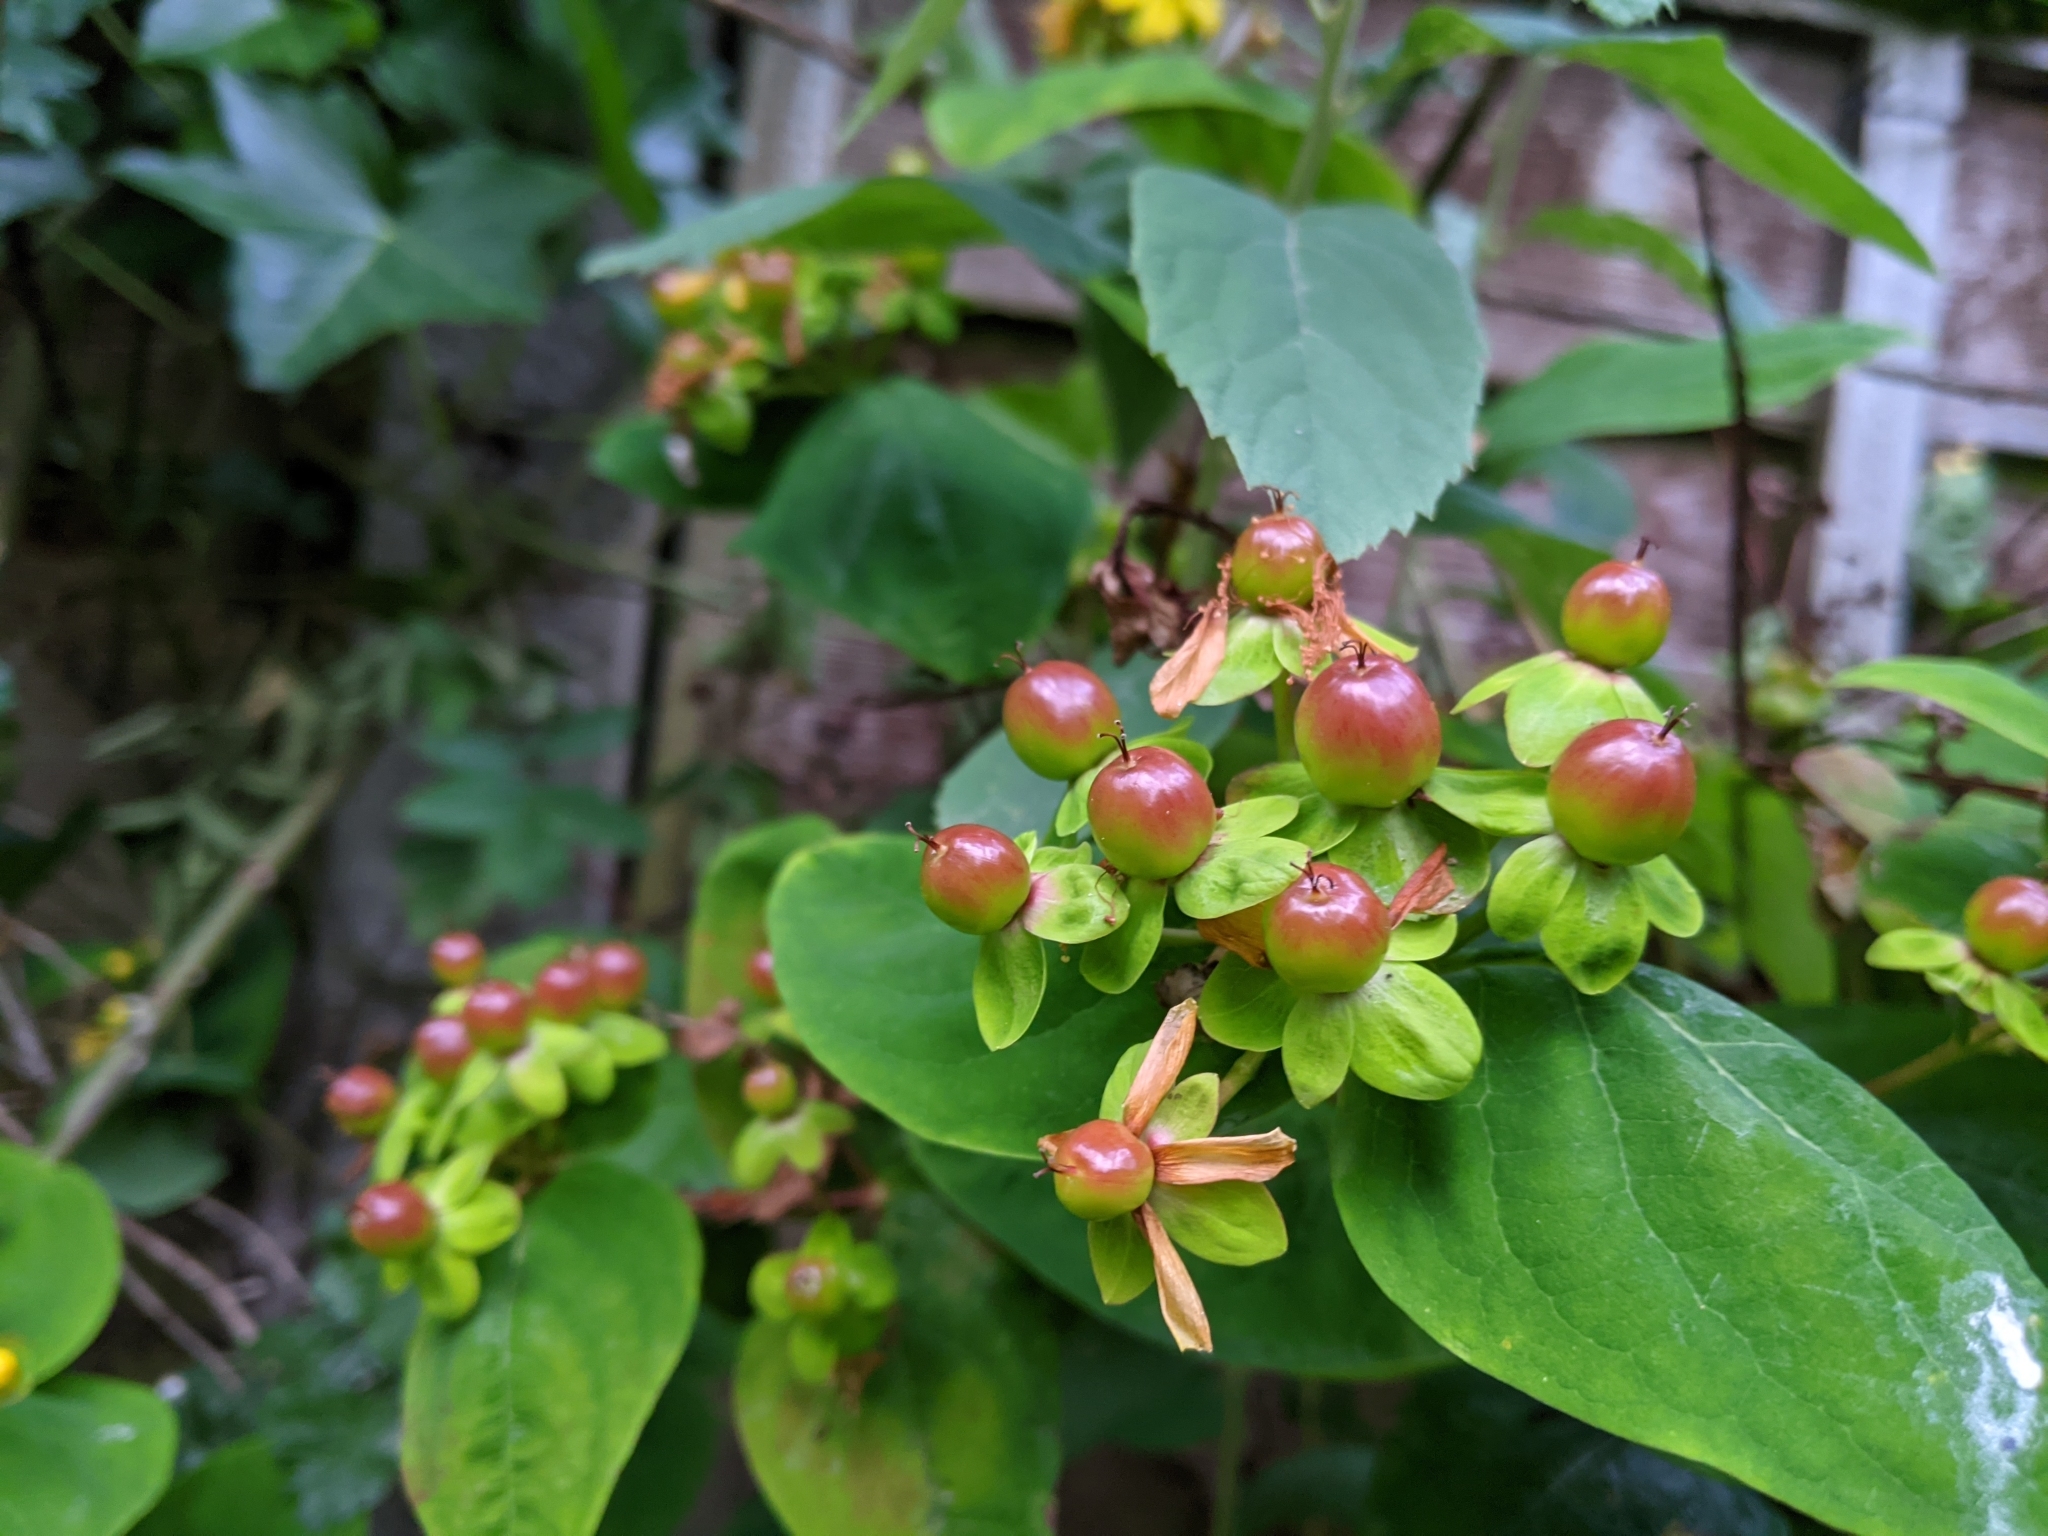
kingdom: Plantae
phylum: Tracheophyta
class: Magnoliopsida
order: Malpighiales
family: Hypericaceae
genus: Hypericum
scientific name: Hypericum androsaemum
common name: Sweet-amber
